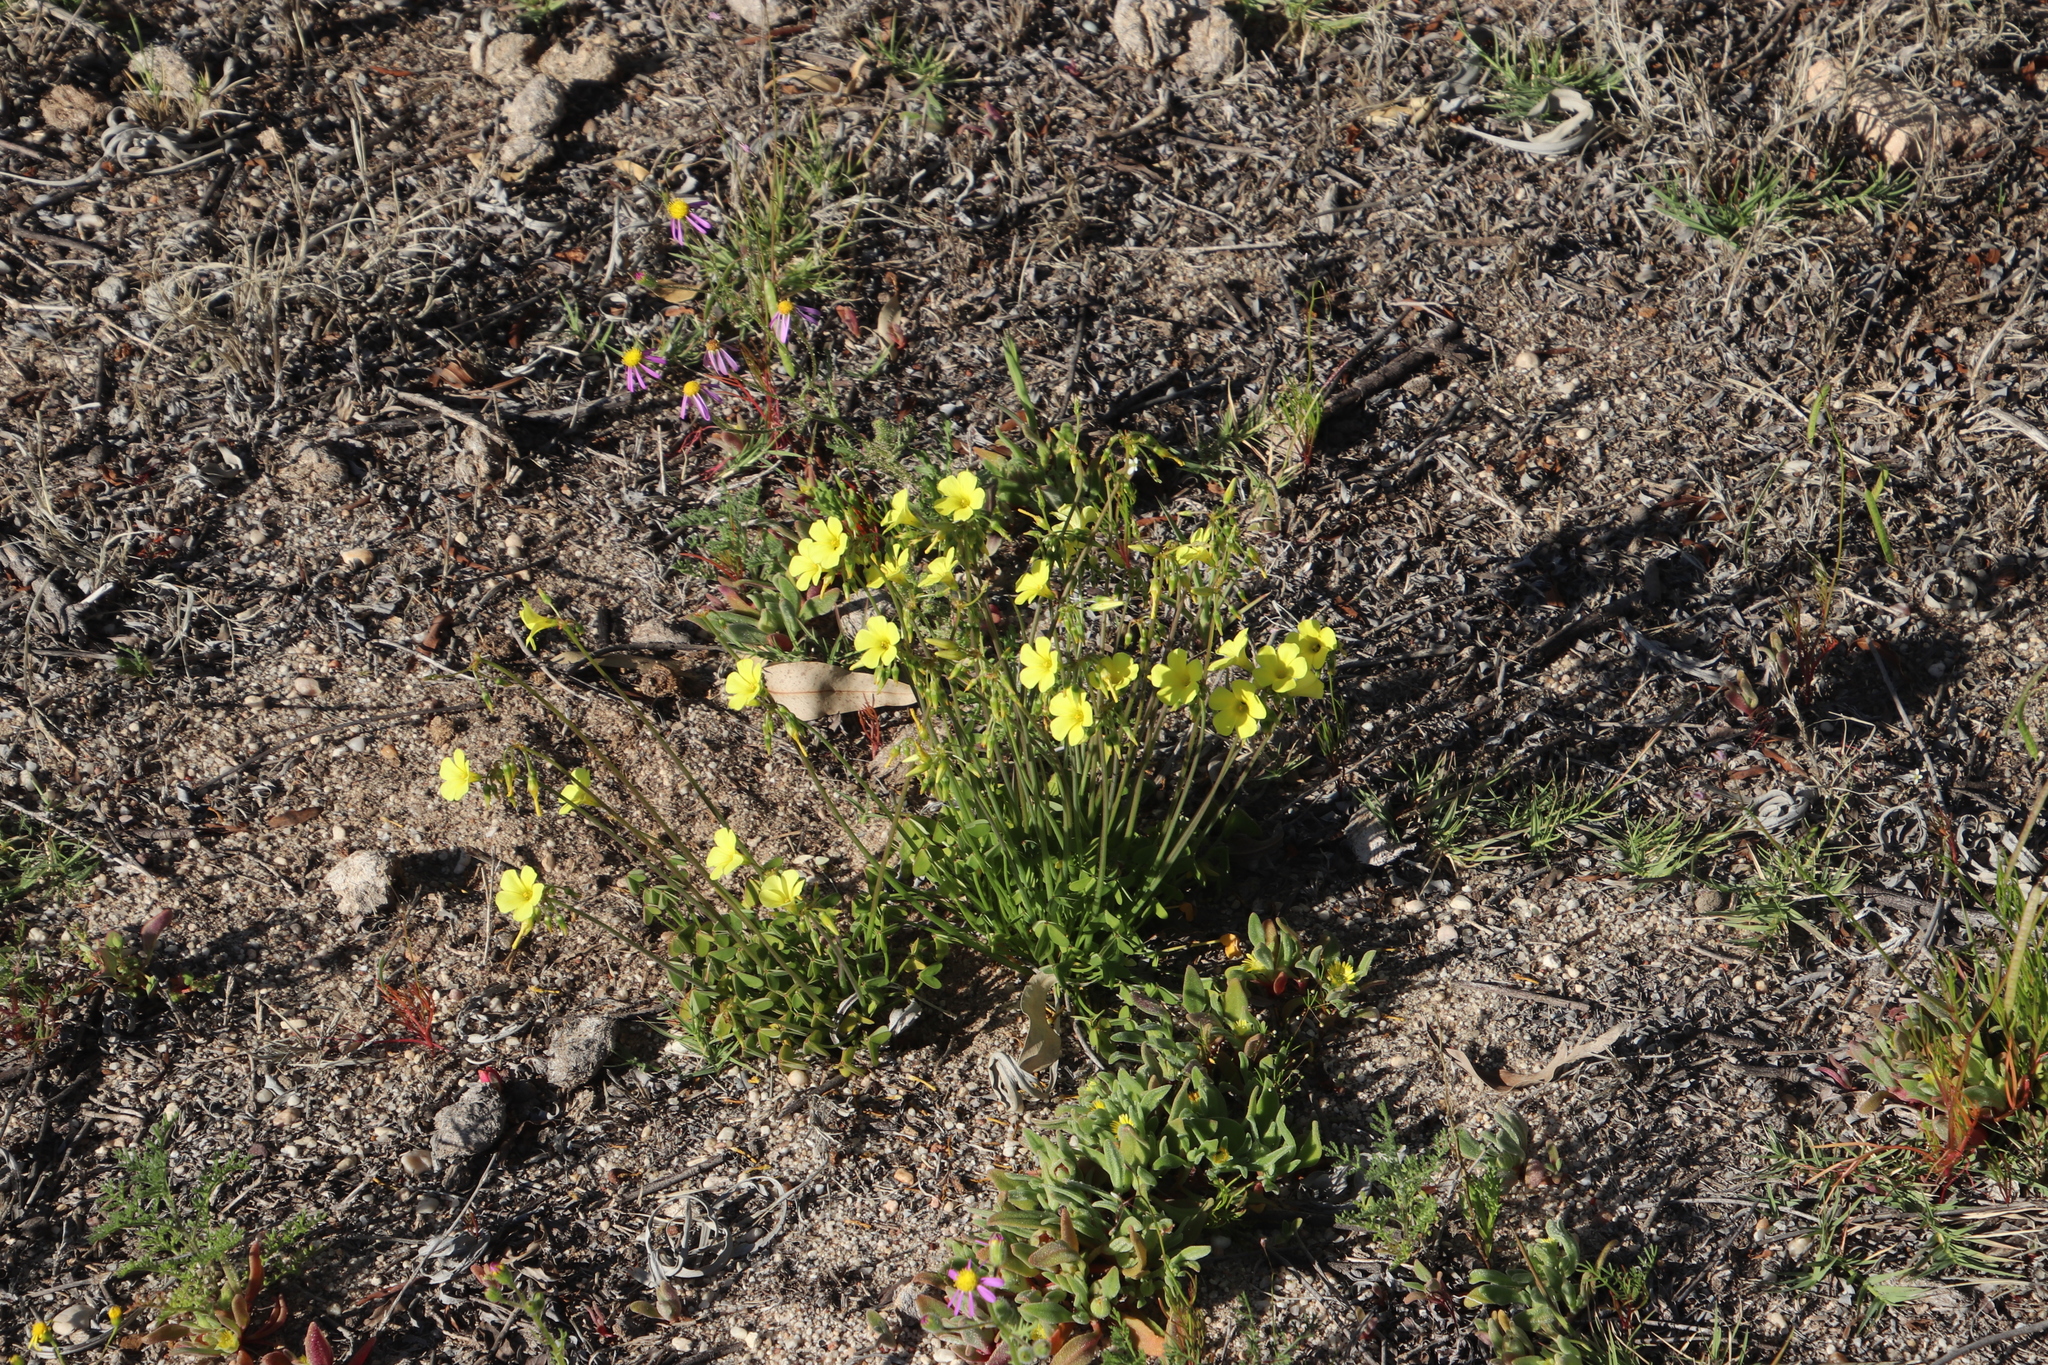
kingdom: Plantae
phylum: Tracheophyta
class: Magnoliopsida
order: Oxalidales
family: Oxalidaceae
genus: Oxalis
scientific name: Oxalis pes-caprae
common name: Bermuda-buttercup
